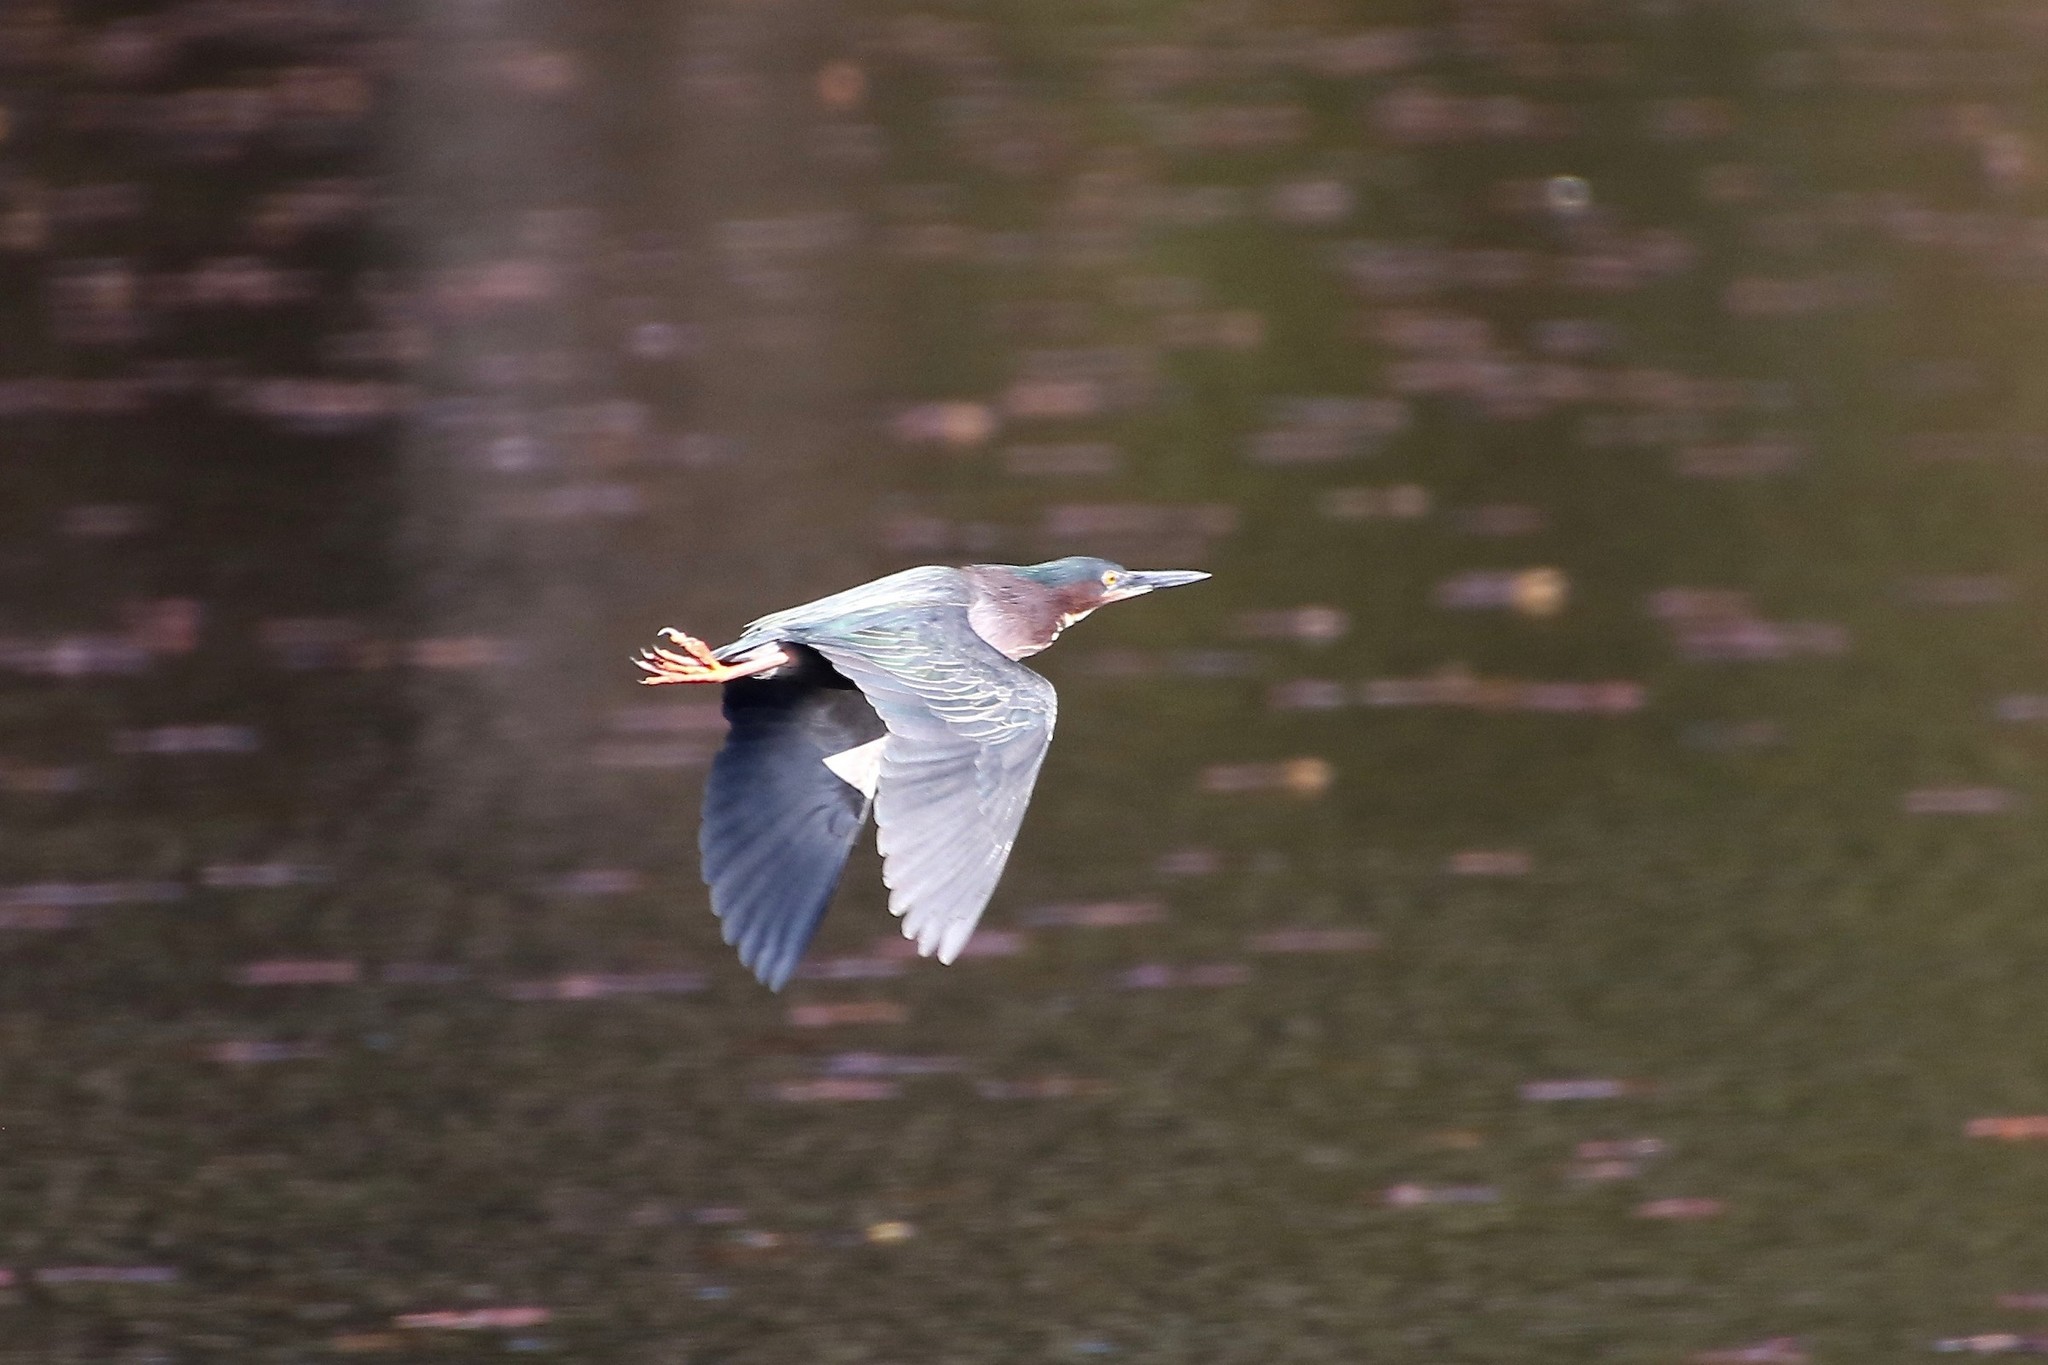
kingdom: Animalia
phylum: Chordata
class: Aves
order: Pelecaniformes
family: Ardeidae
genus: Butorides
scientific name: Butorides virescens
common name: Green heron
